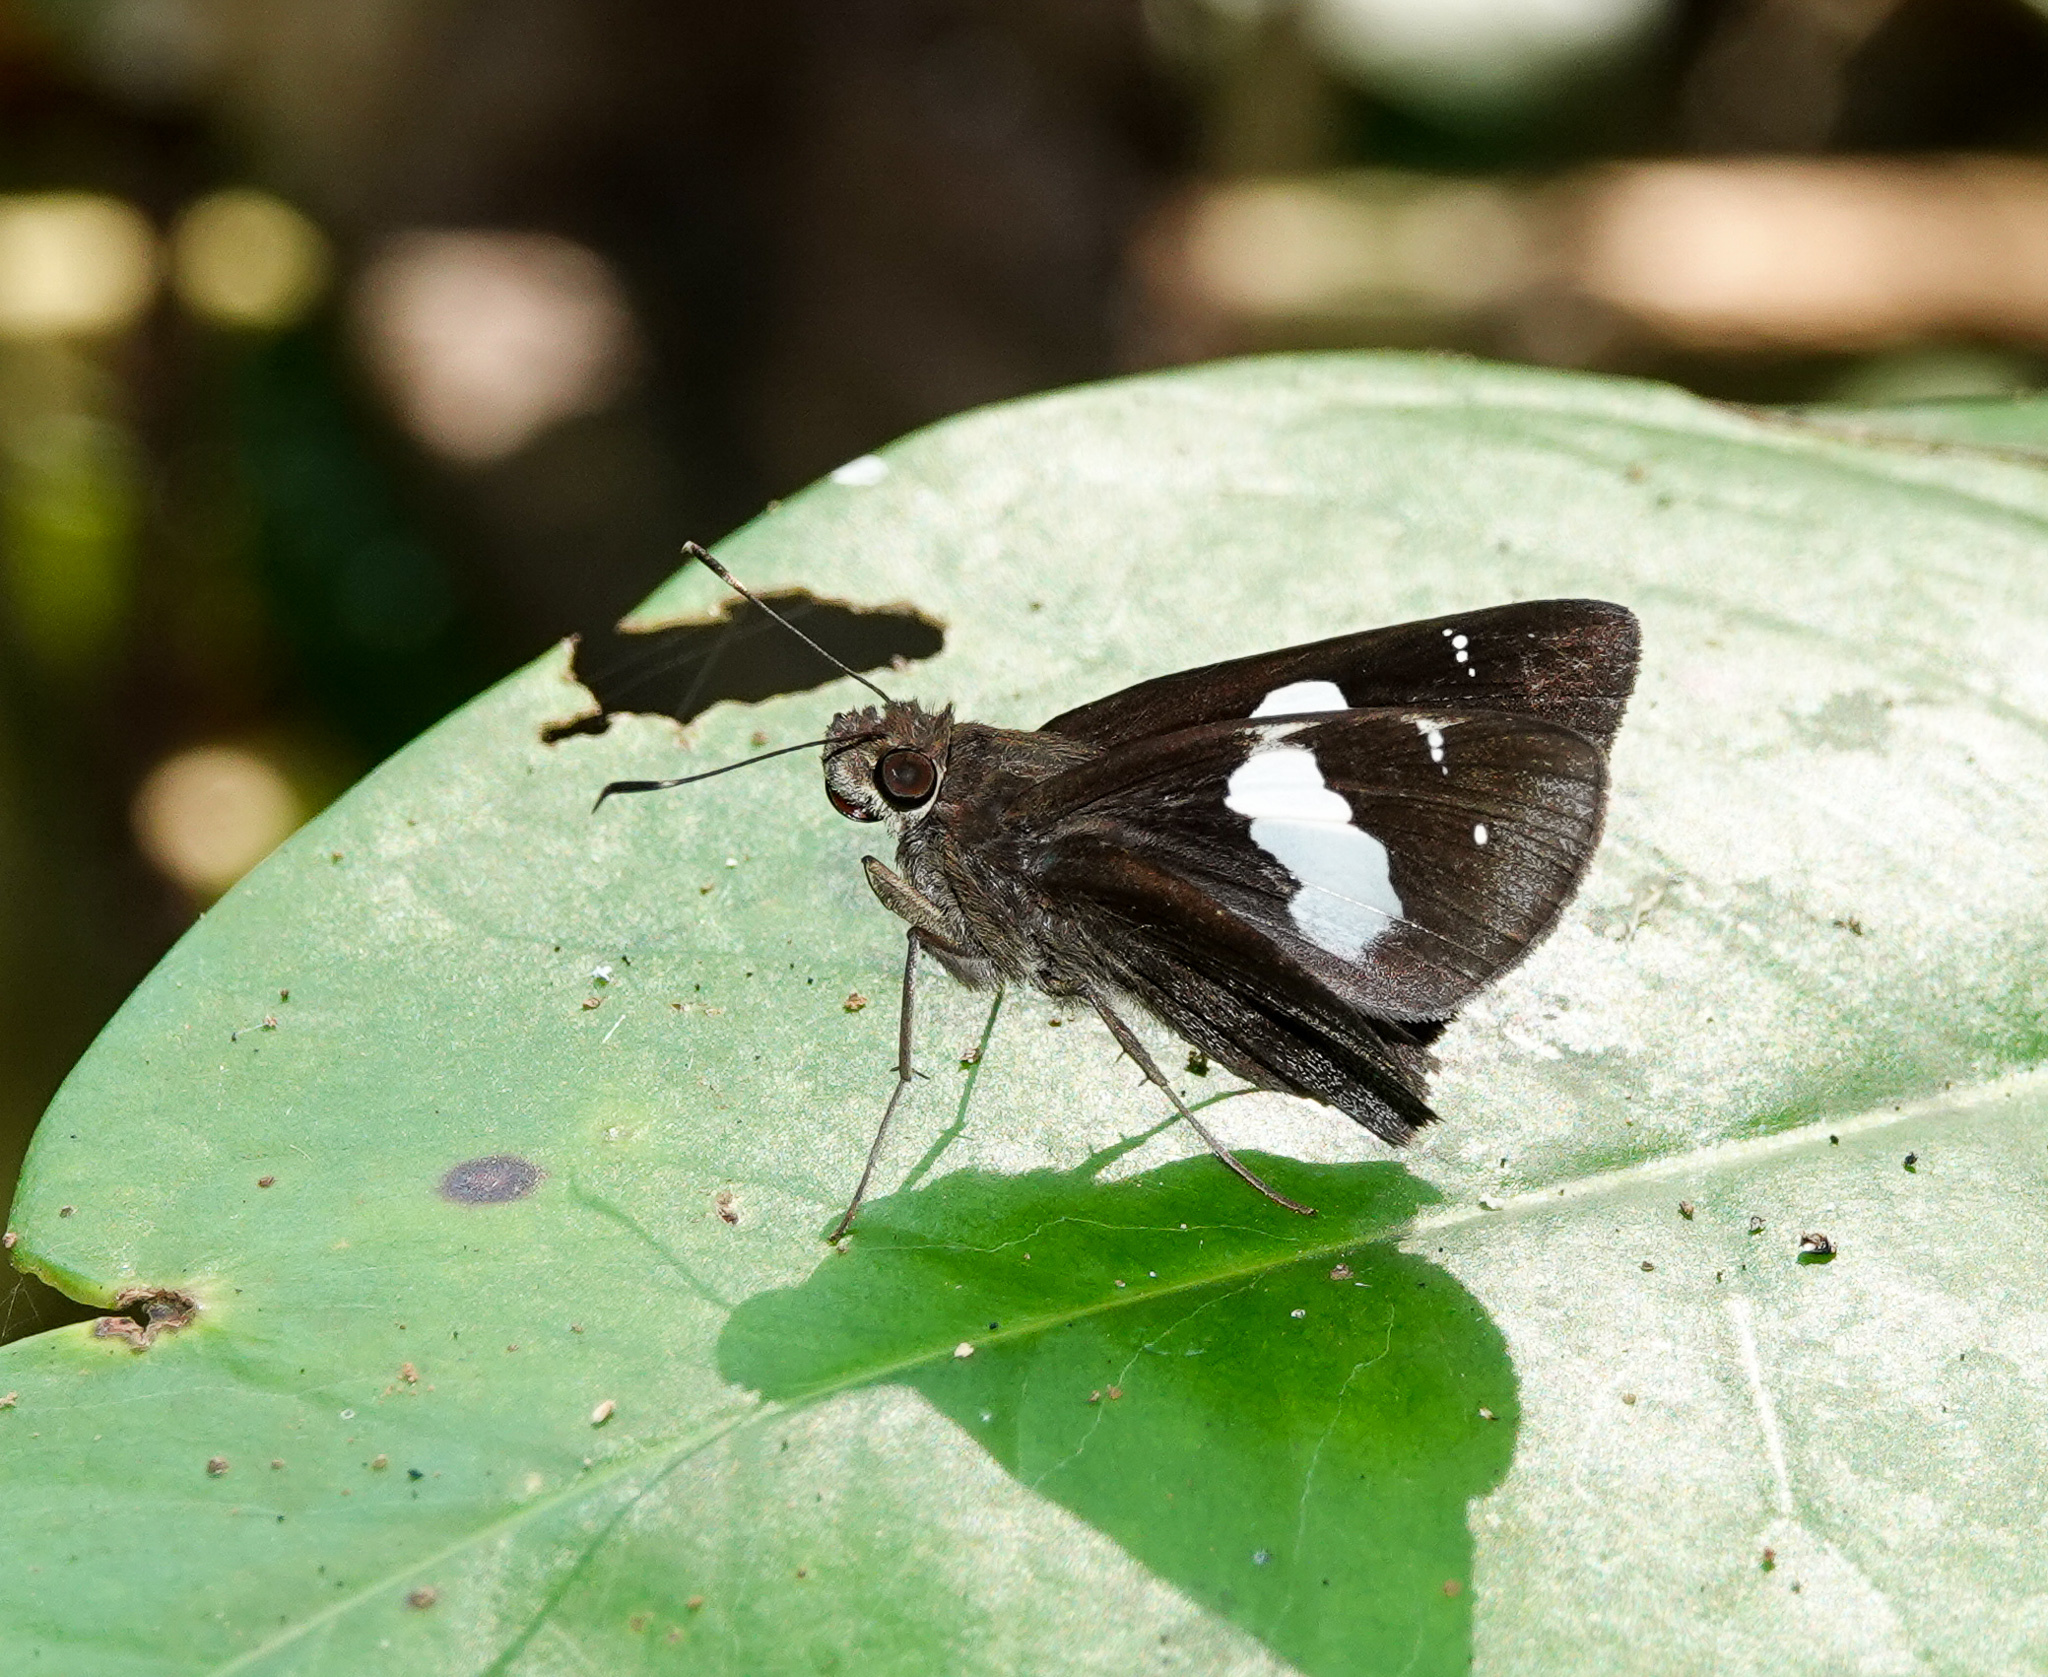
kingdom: Animalia
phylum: Arthropoda
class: Insecta
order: Lepidoptera
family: Hesperiidae
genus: Notocrypta
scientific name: Notocrypta curvifascia
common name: Restricted demon
